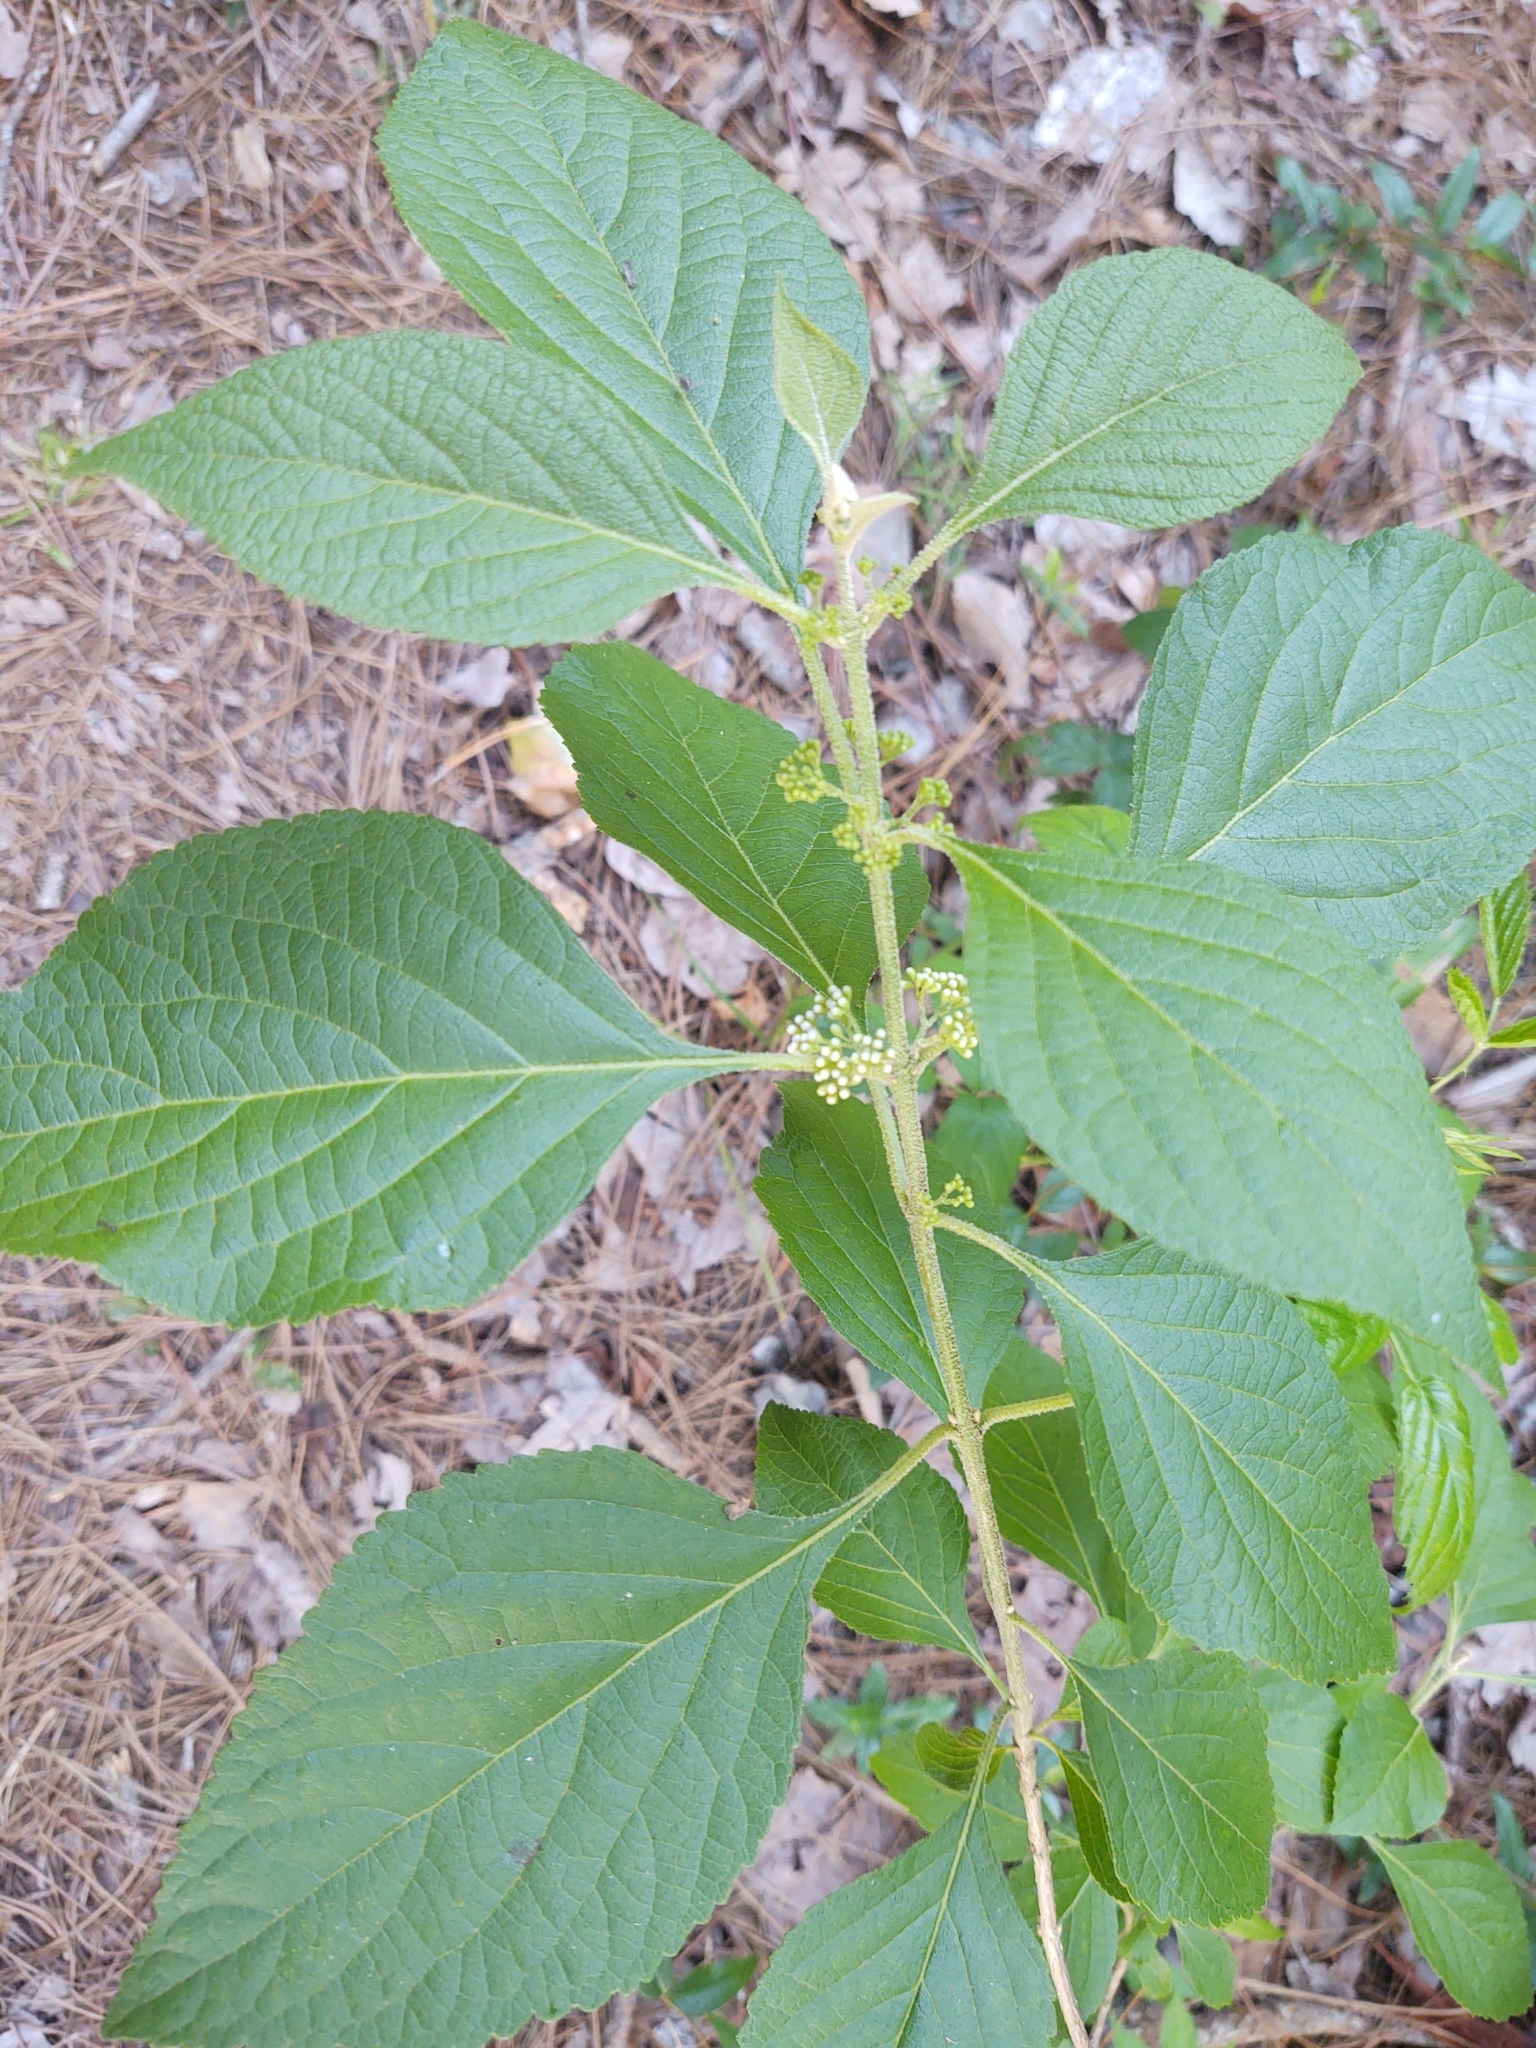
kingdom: Plantae
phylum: Tracheophyta
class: Magnoliopsida
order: Lamiales
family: Lamiaceae
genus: Callicarpa
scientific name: Callicarpa americana
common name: American beautyberry
